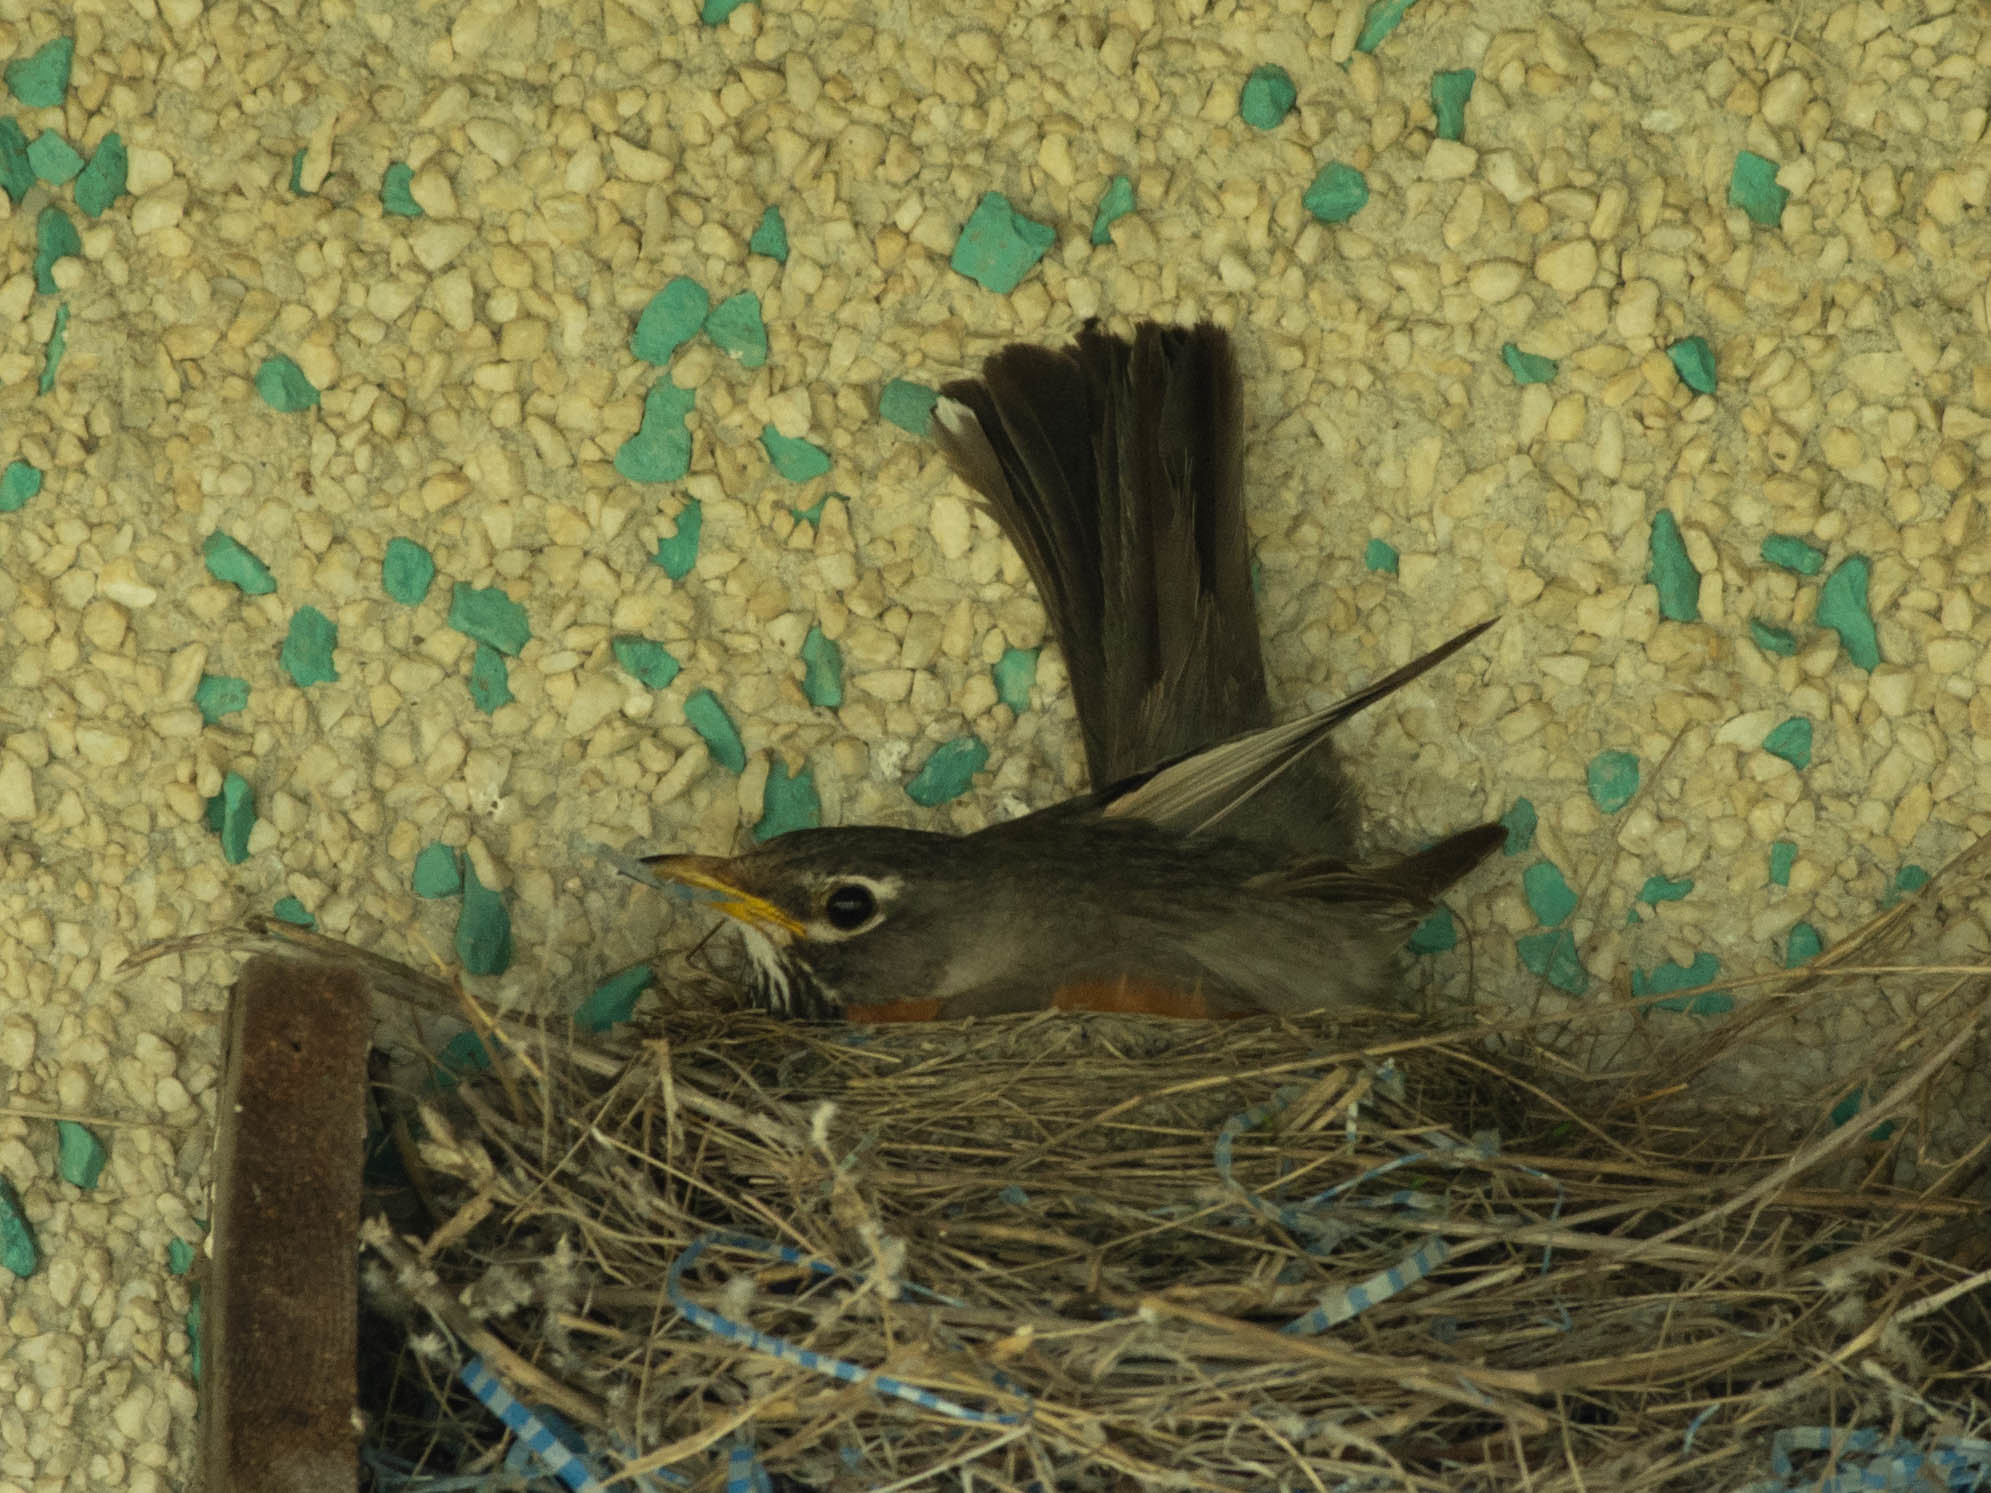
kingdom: Animalia
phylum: Chordata
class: Aves
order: Passeriformes
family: Turdidae
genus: Turdus
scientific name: Turdus migratorius
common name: American robin
